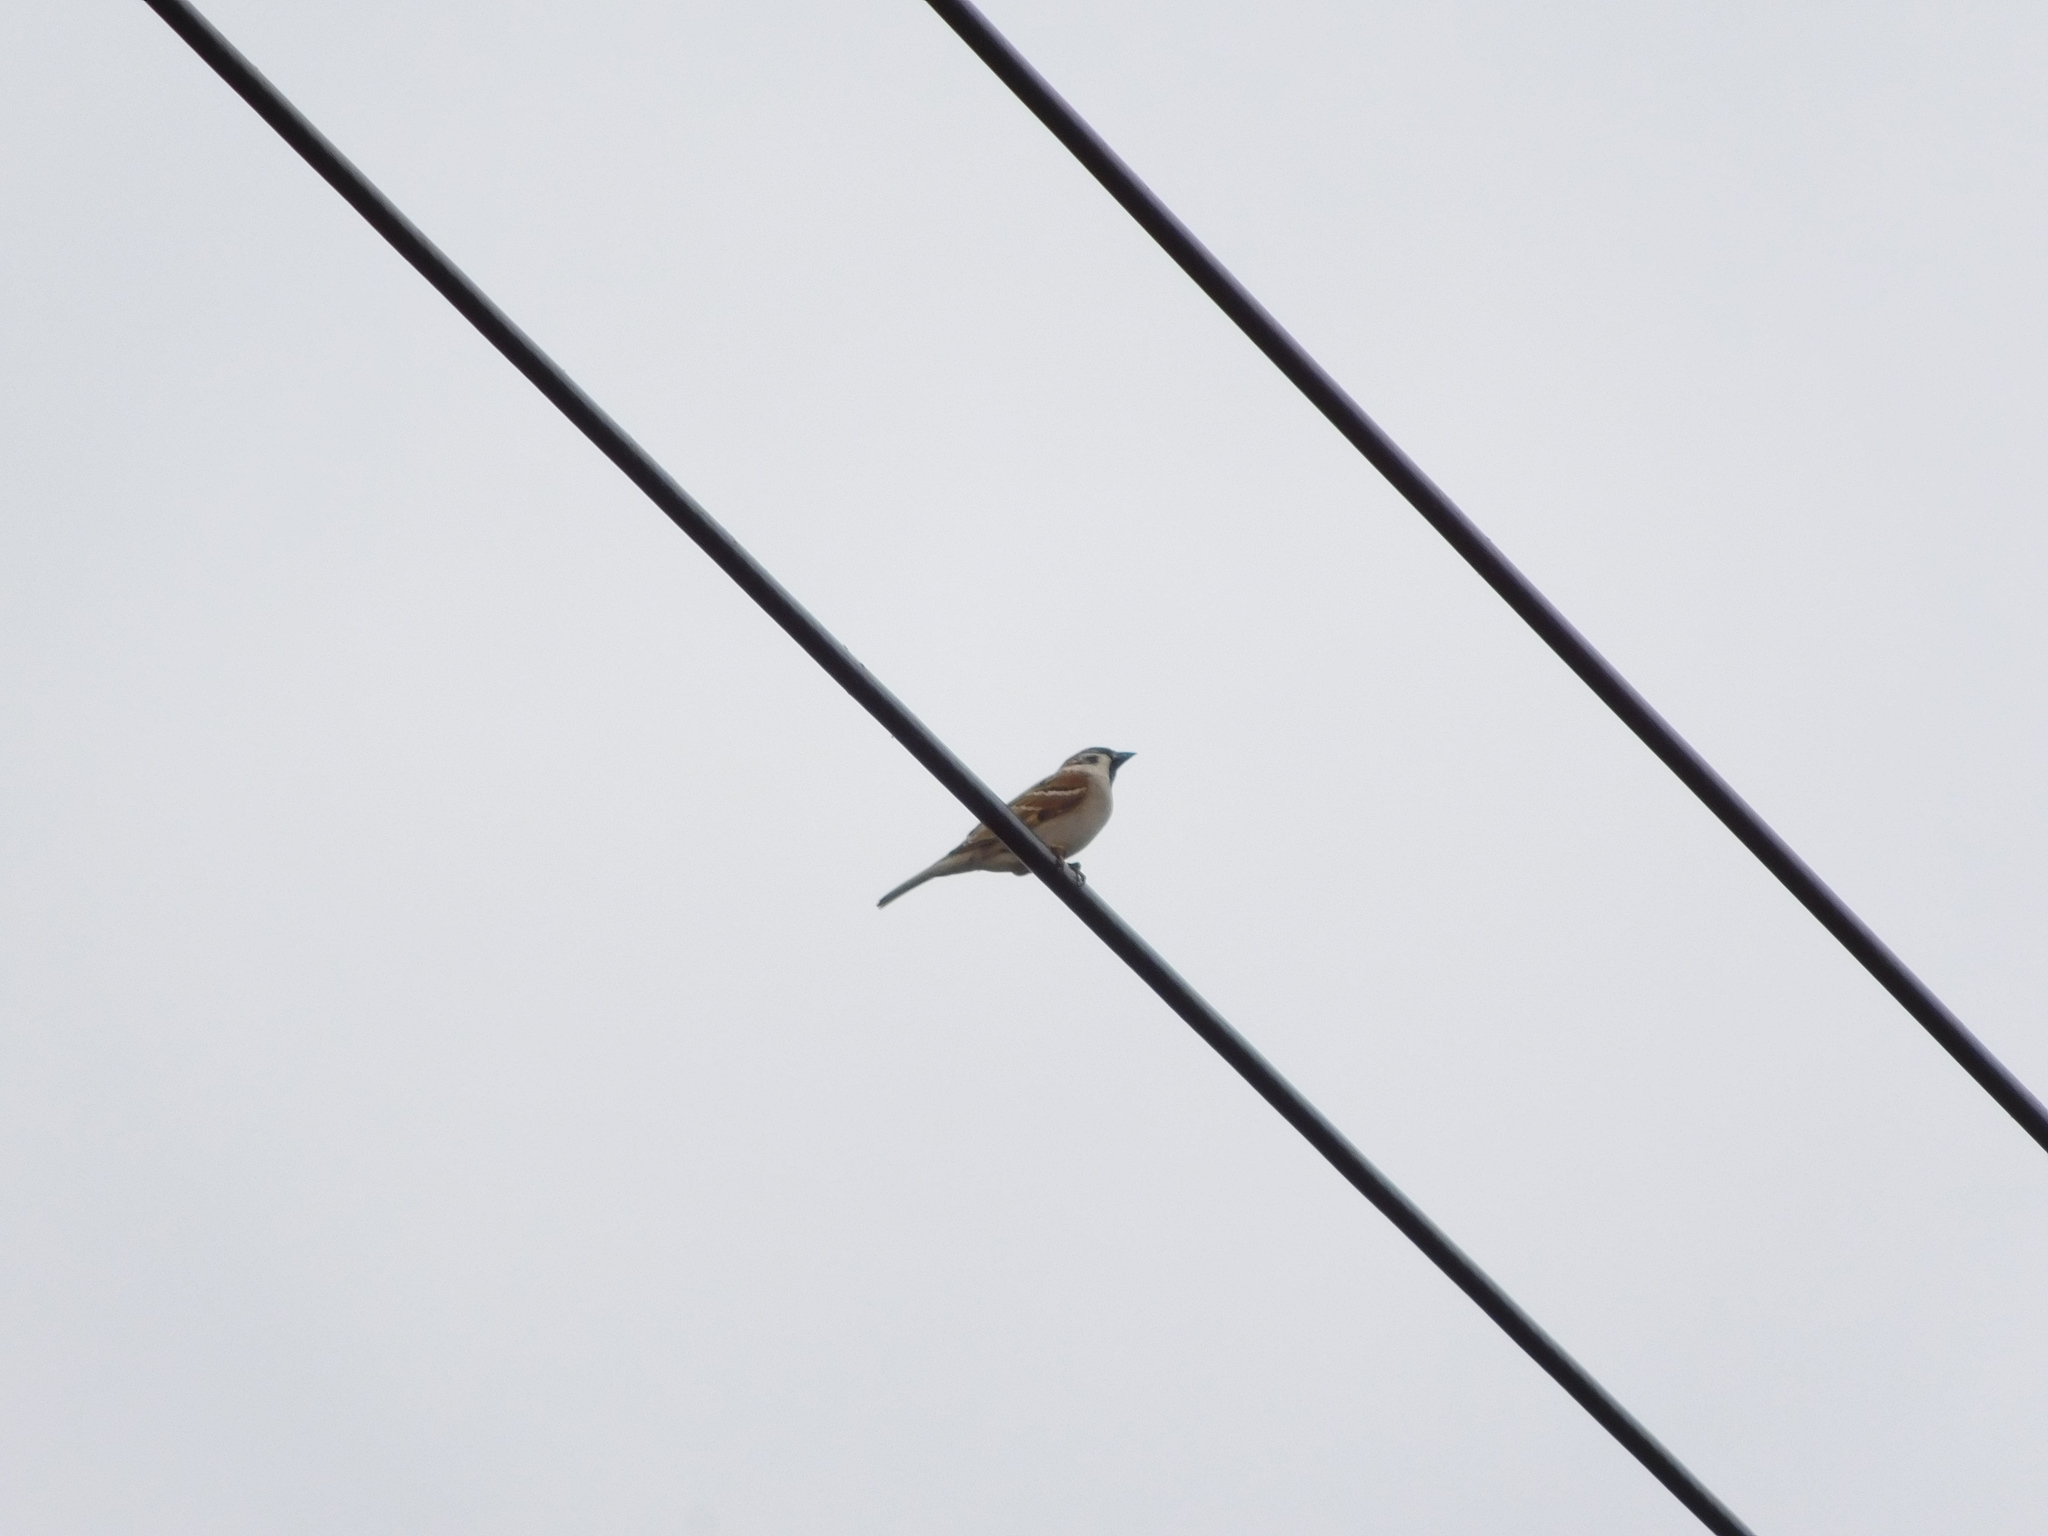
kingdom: Animalia
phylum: Chordata
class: Aves
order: Passeriformes
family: Passeridae
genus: Passer
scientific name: Passer montanus
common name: Eurasian tree sparrow
